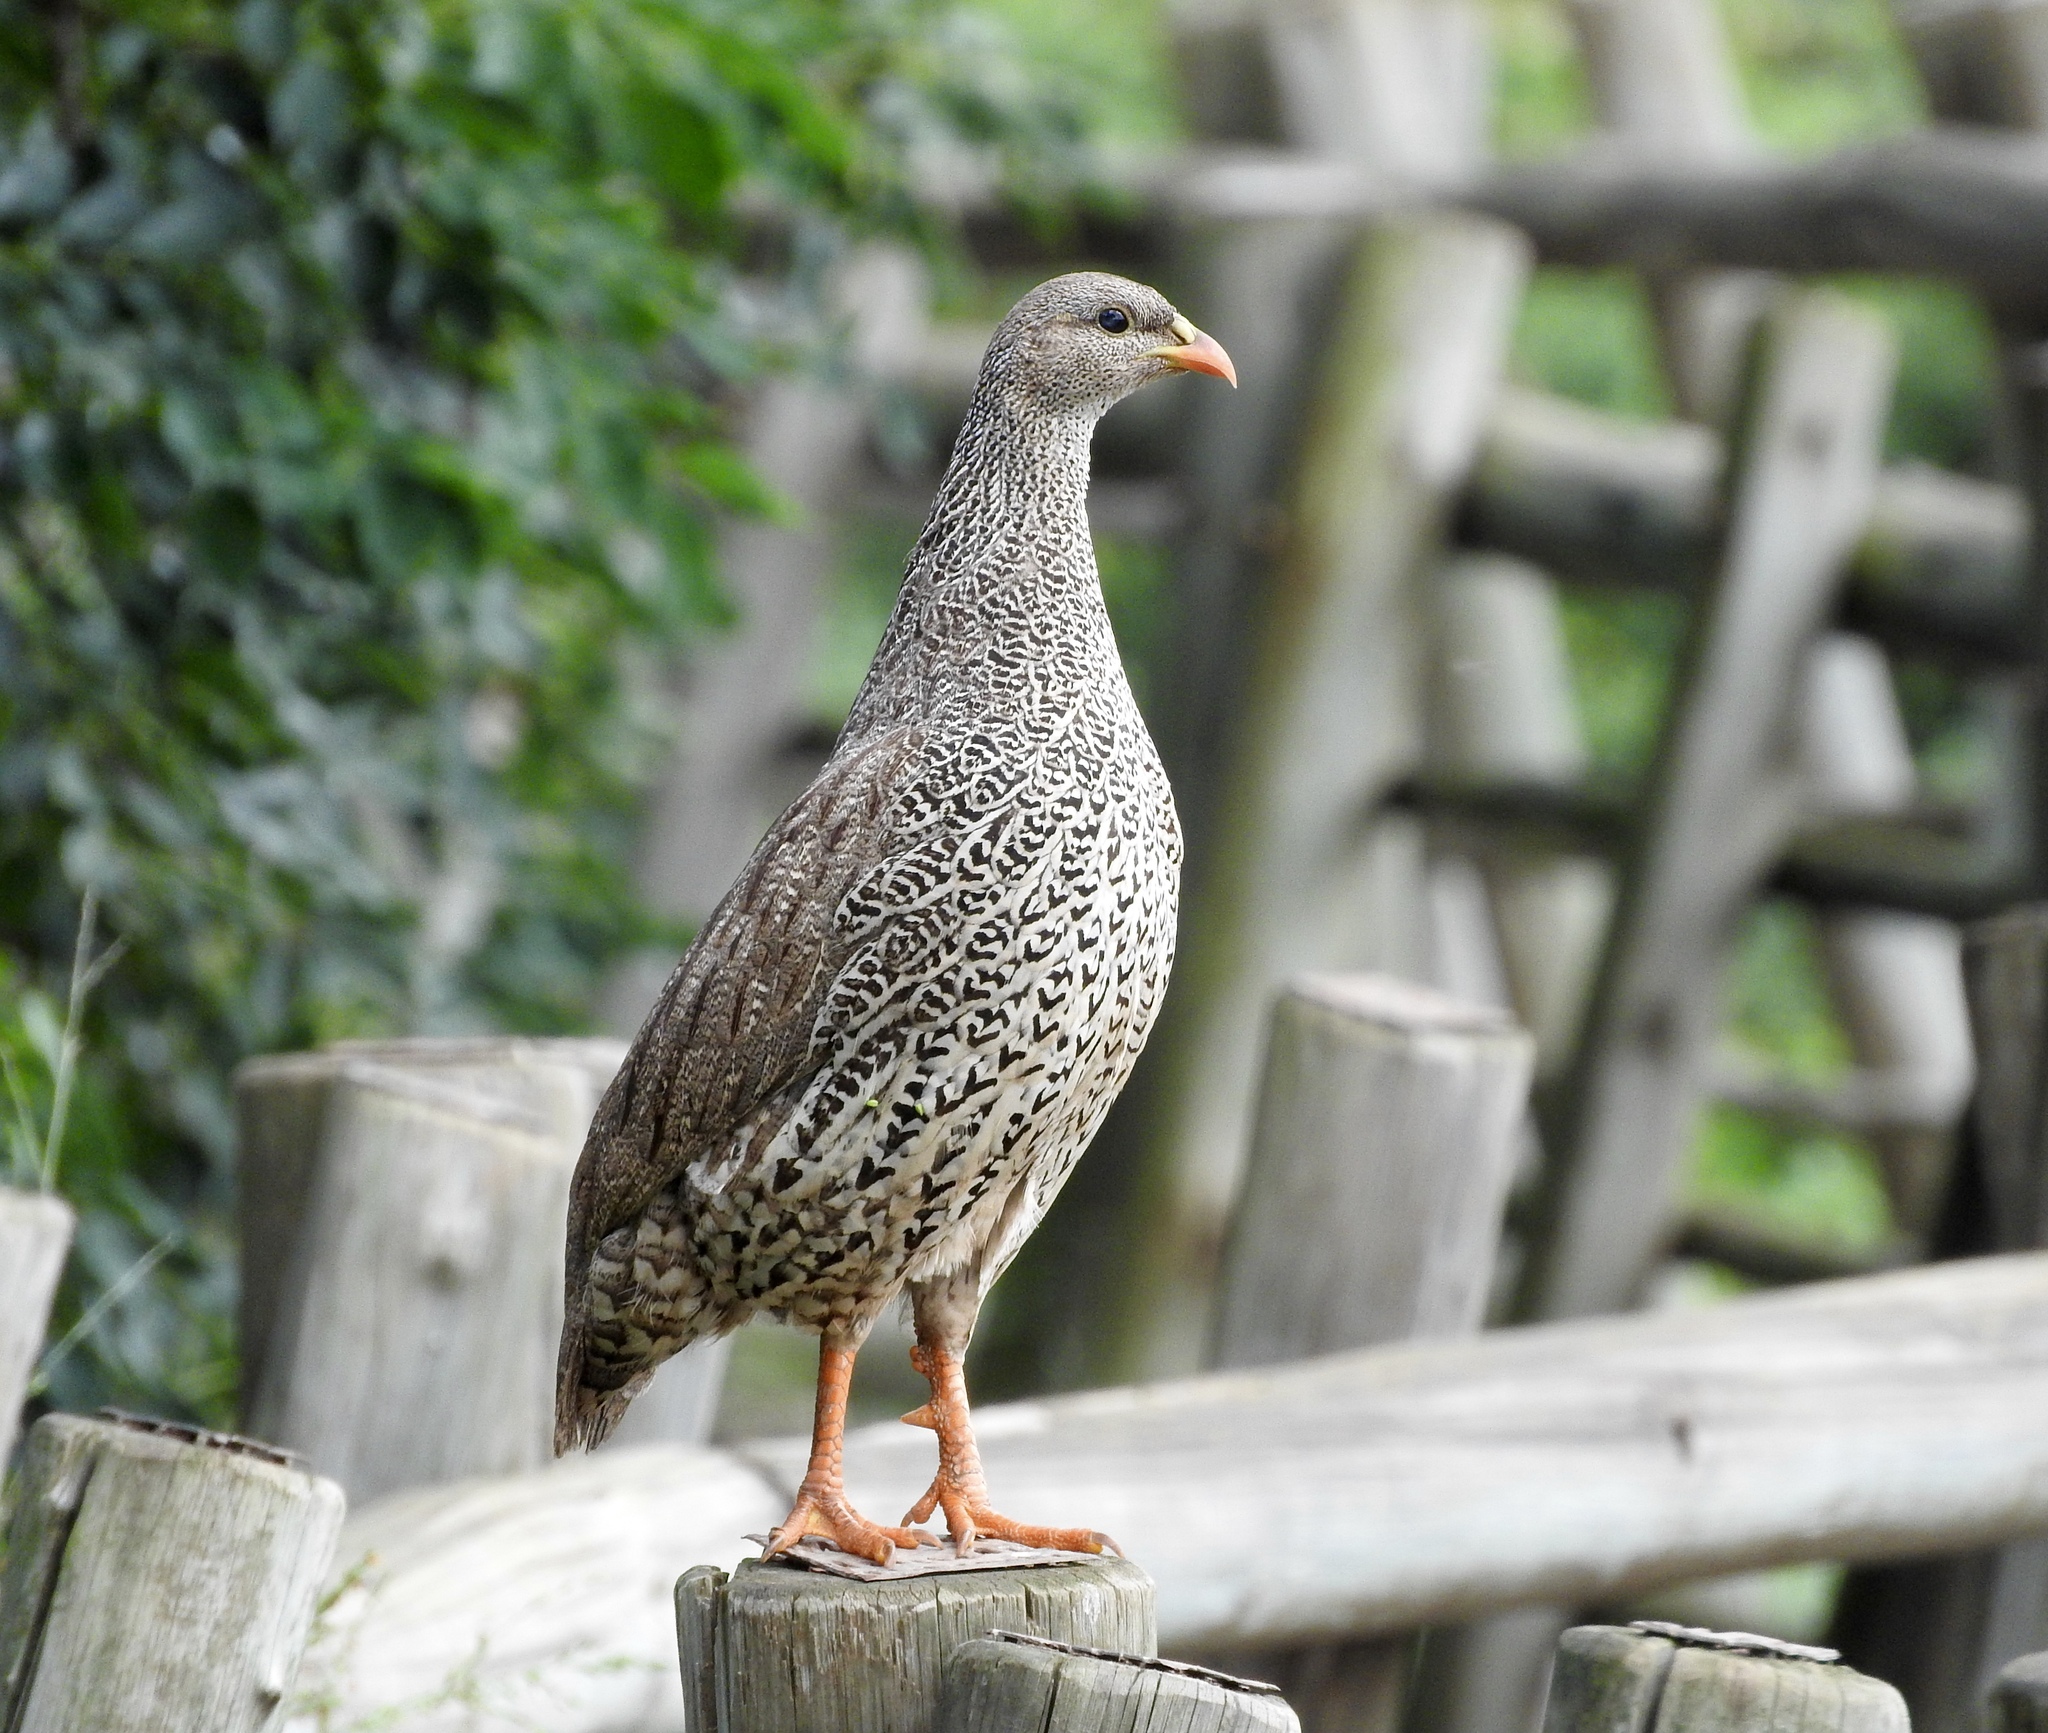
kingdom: Animalia
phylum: Chordata
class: Aves
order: Galliformes
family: Phasianidae
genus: Pternistis
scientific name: Pternistis natalensis
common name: Natal spurfowl
